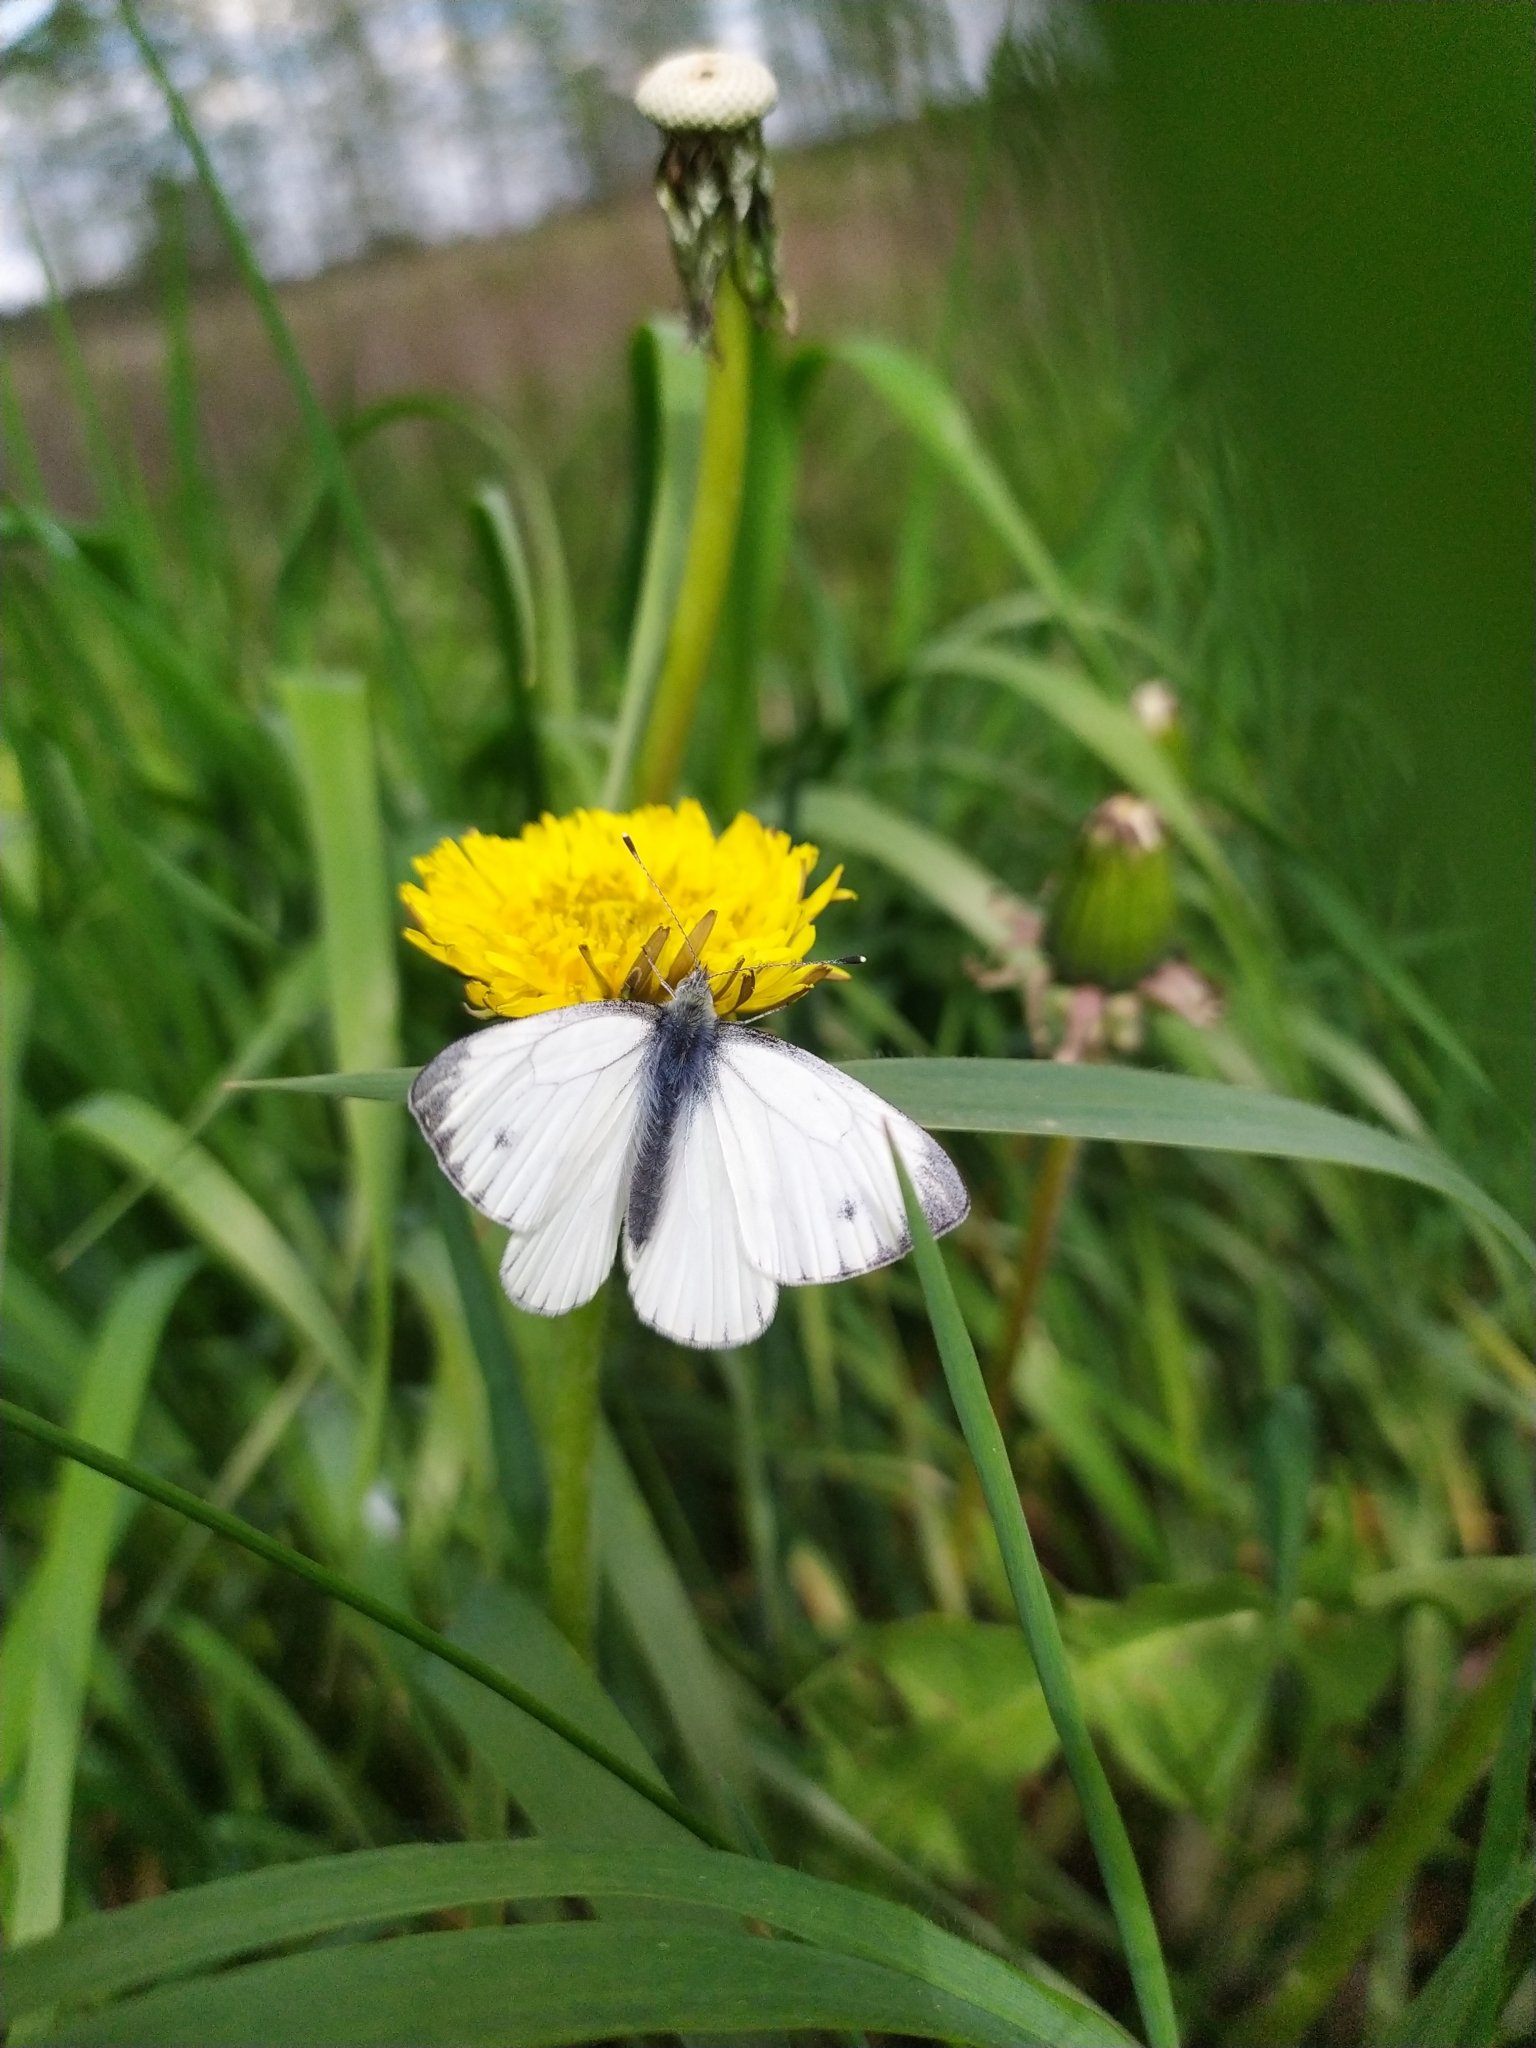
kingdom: Animalia
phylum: Arthropoda
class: Insecta
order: Lepidoptera
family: Pieridae
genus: Pieris
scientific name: Pieris napi
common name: Green-veined white
